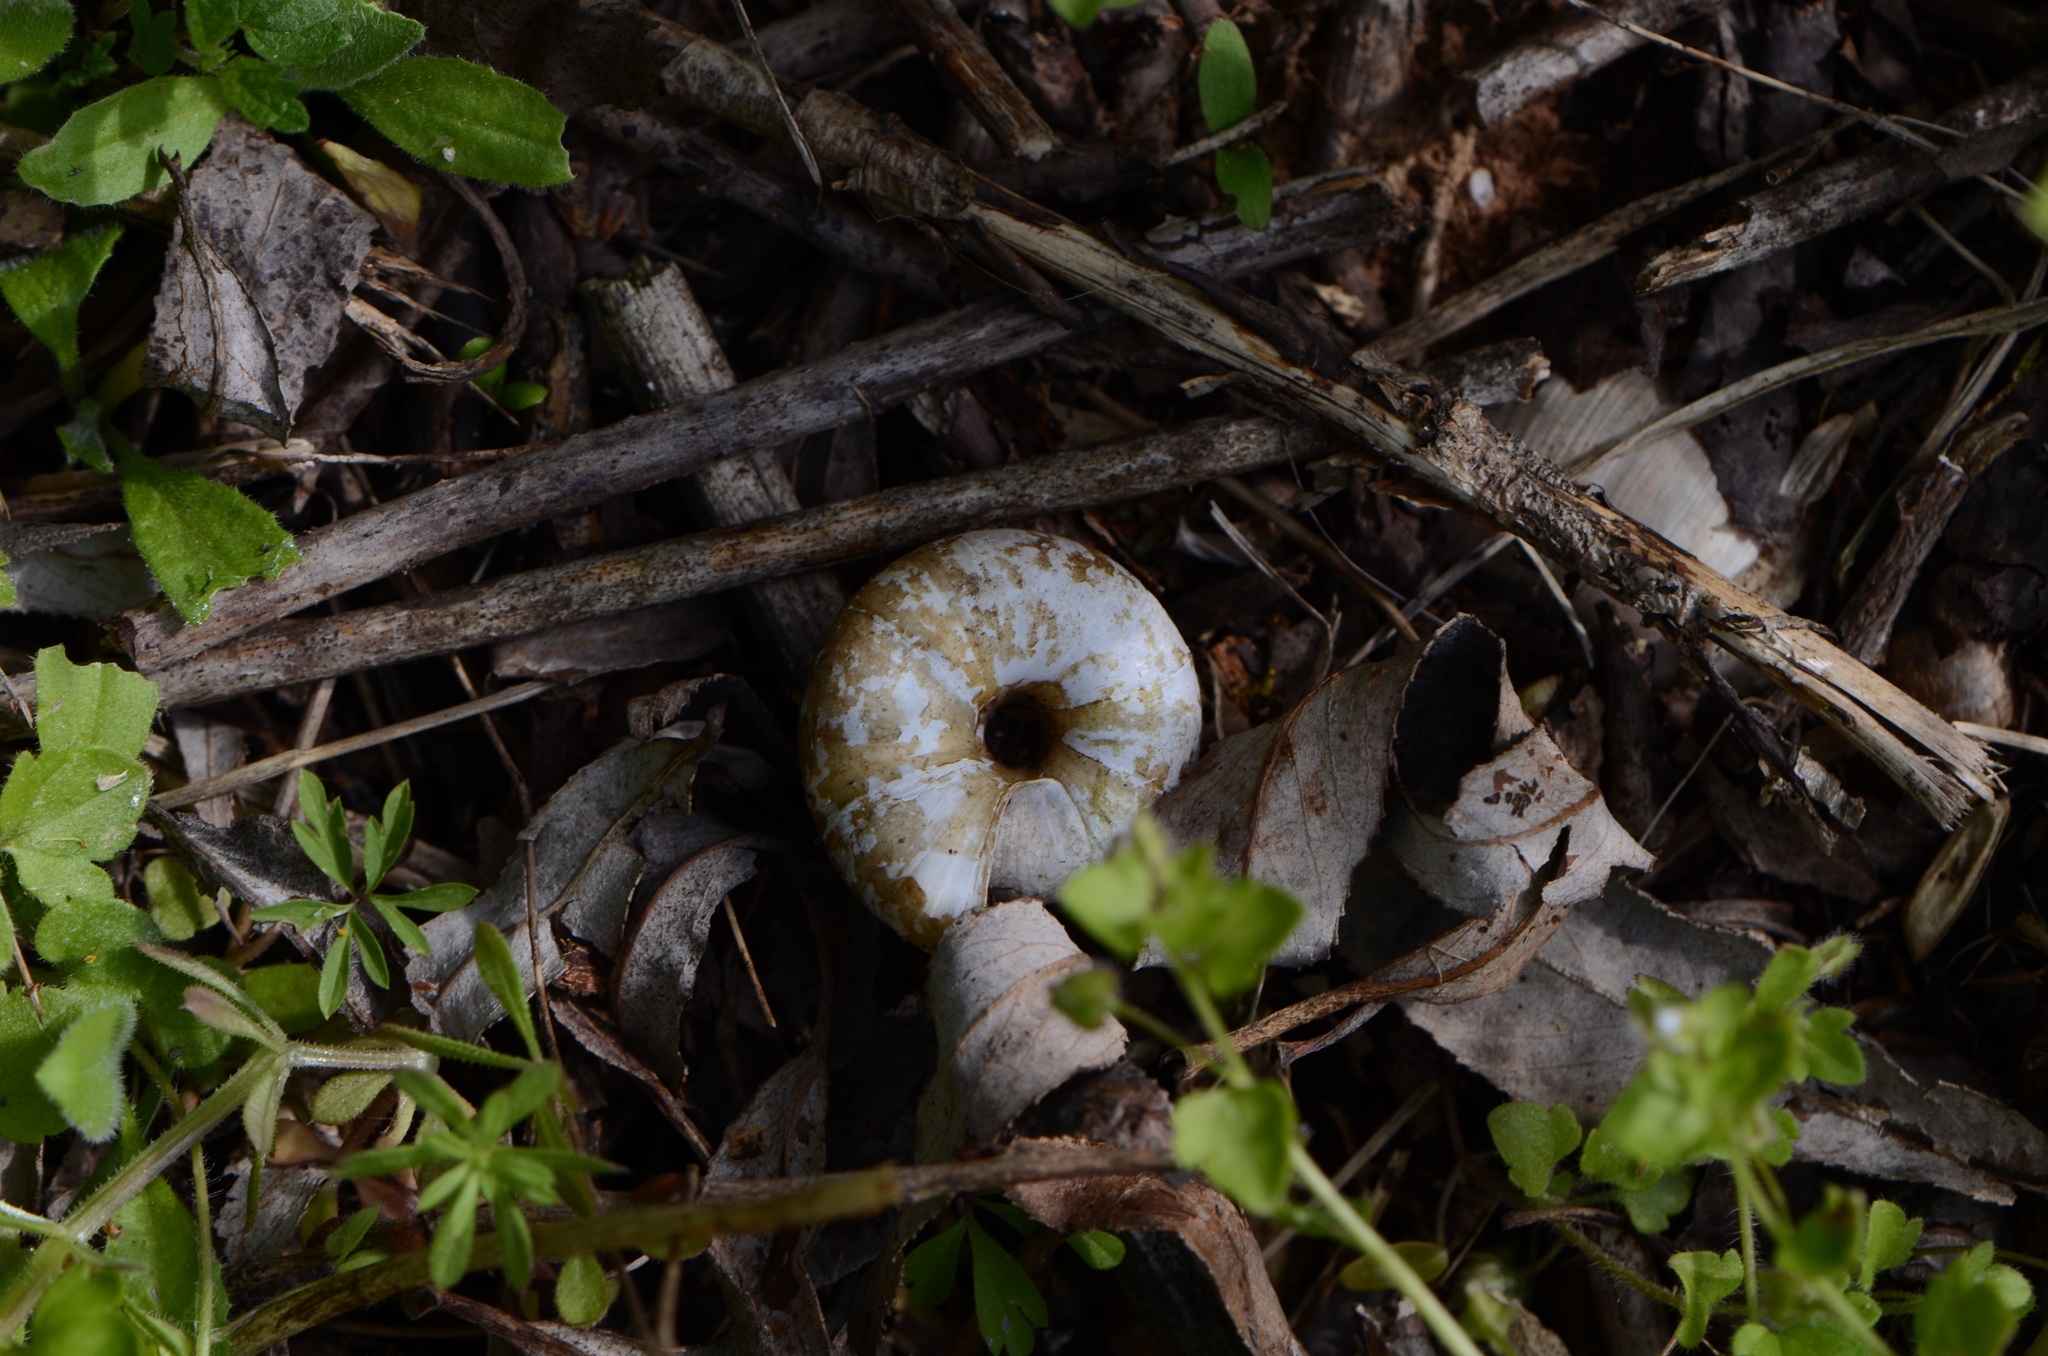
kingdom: Animalia
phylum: Mollusca
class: Gastropoda
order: Stylommatophora
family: Zonitidae
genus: Aegopis
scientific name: Aegopis verticillus
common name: Giant glass snail
